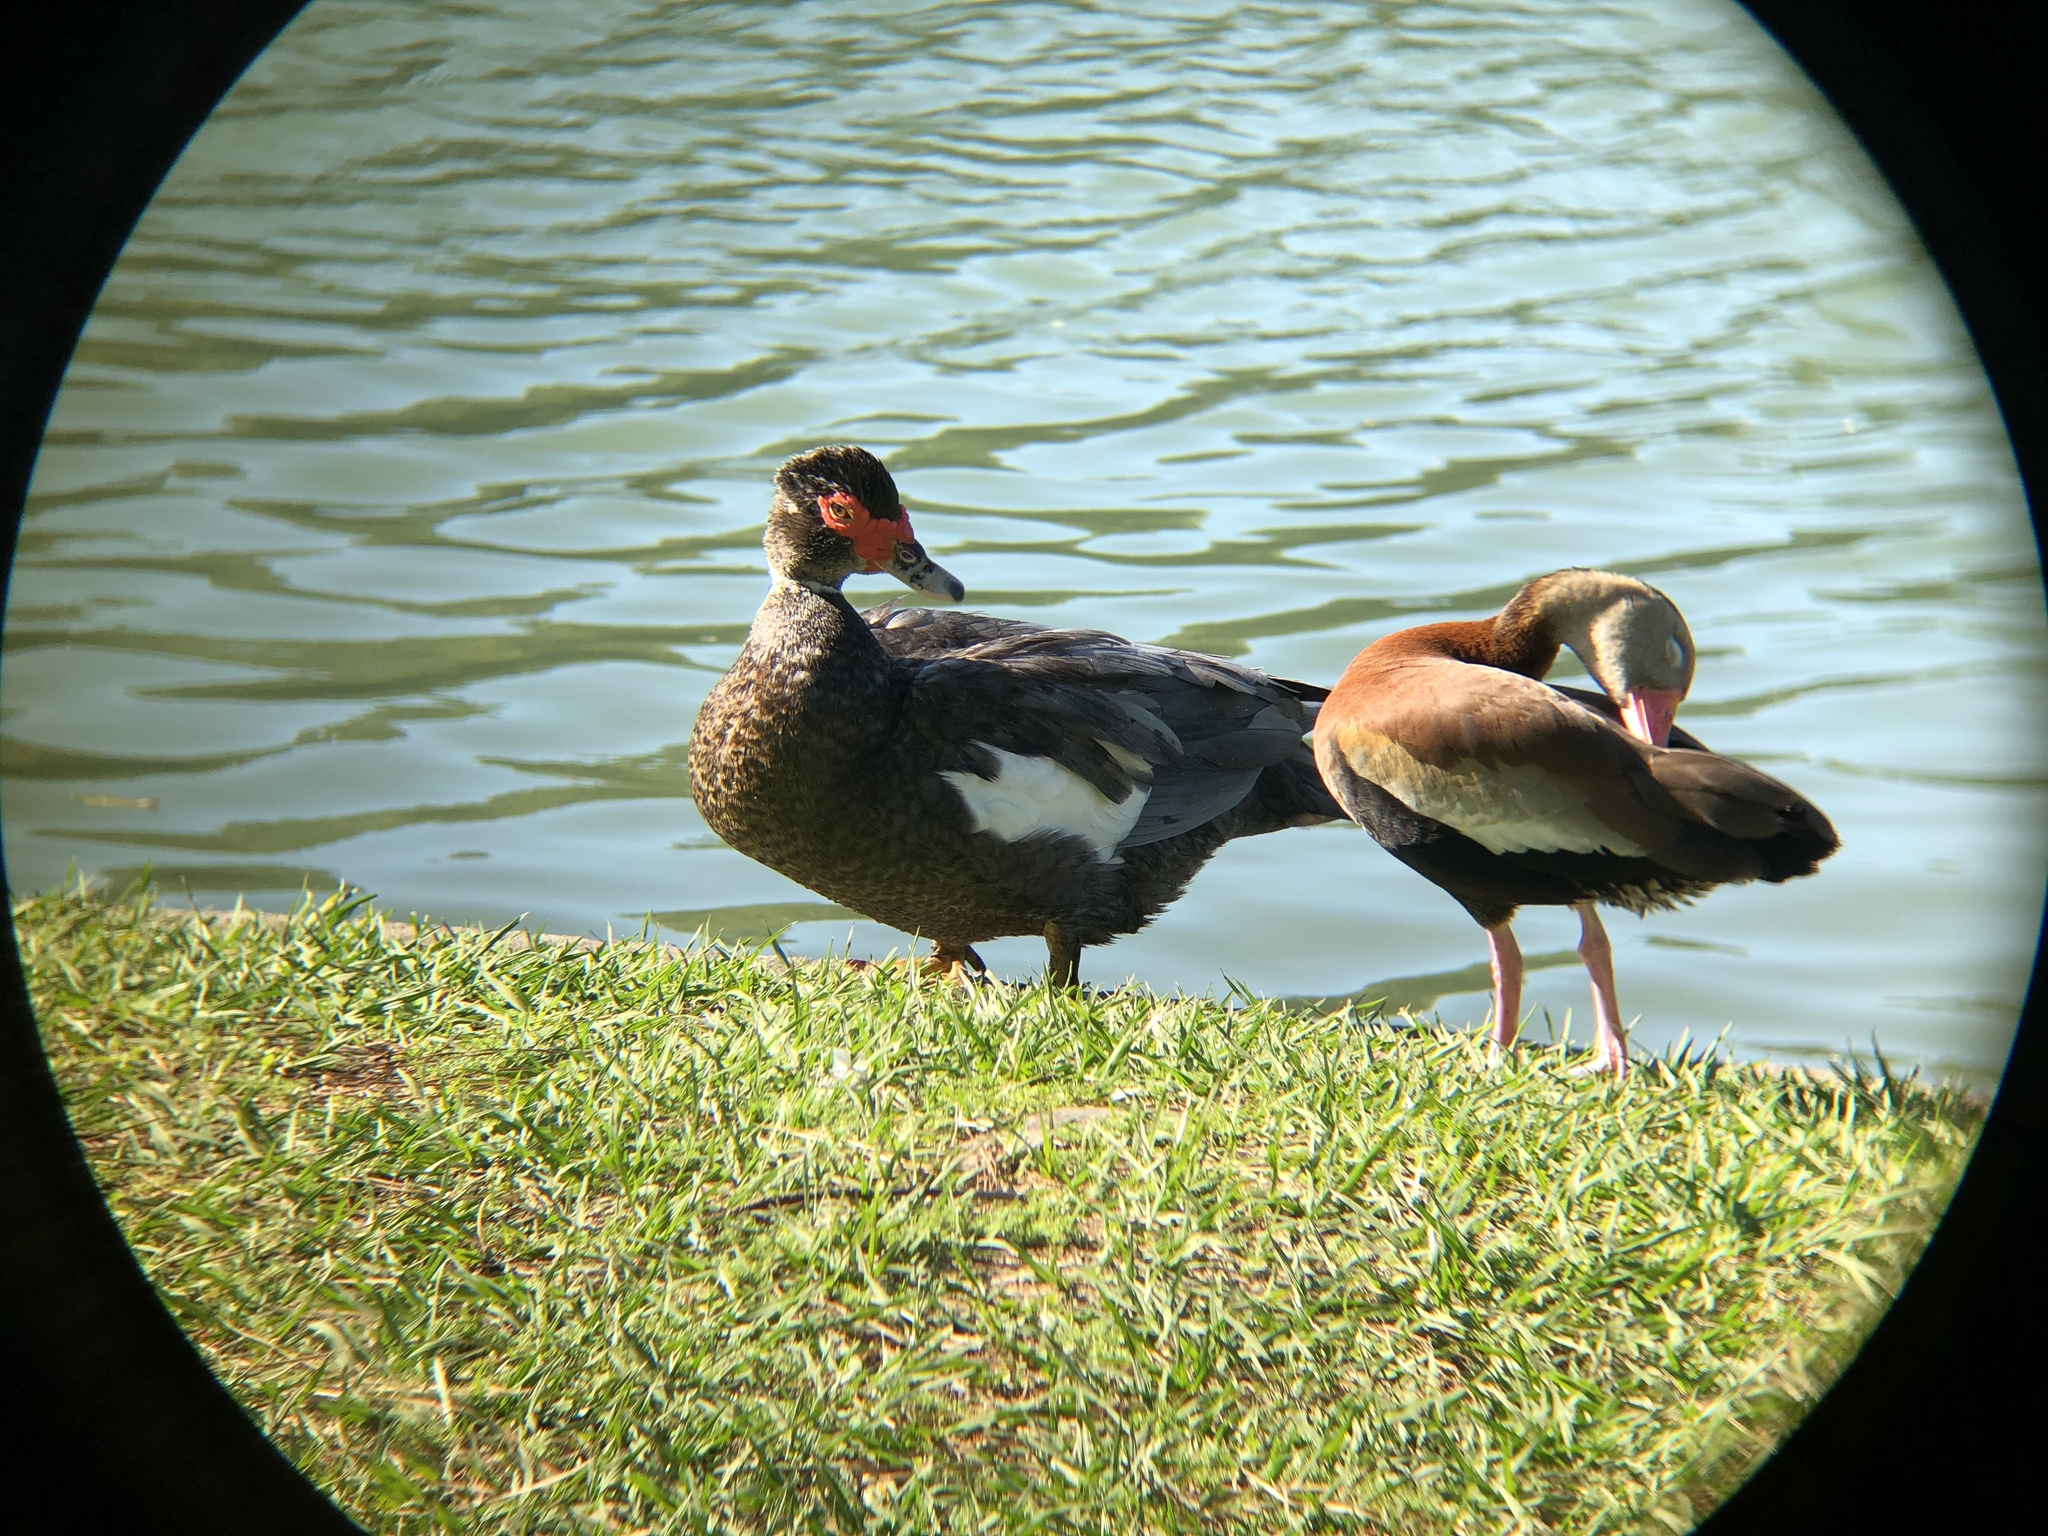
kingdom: Animalia
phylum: Chordata
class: Aves
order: Anseriformes
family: Anatidae
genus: Dendrocygna
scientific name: Dendrocygna autumnalis
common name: Black-bellied whistling duck
